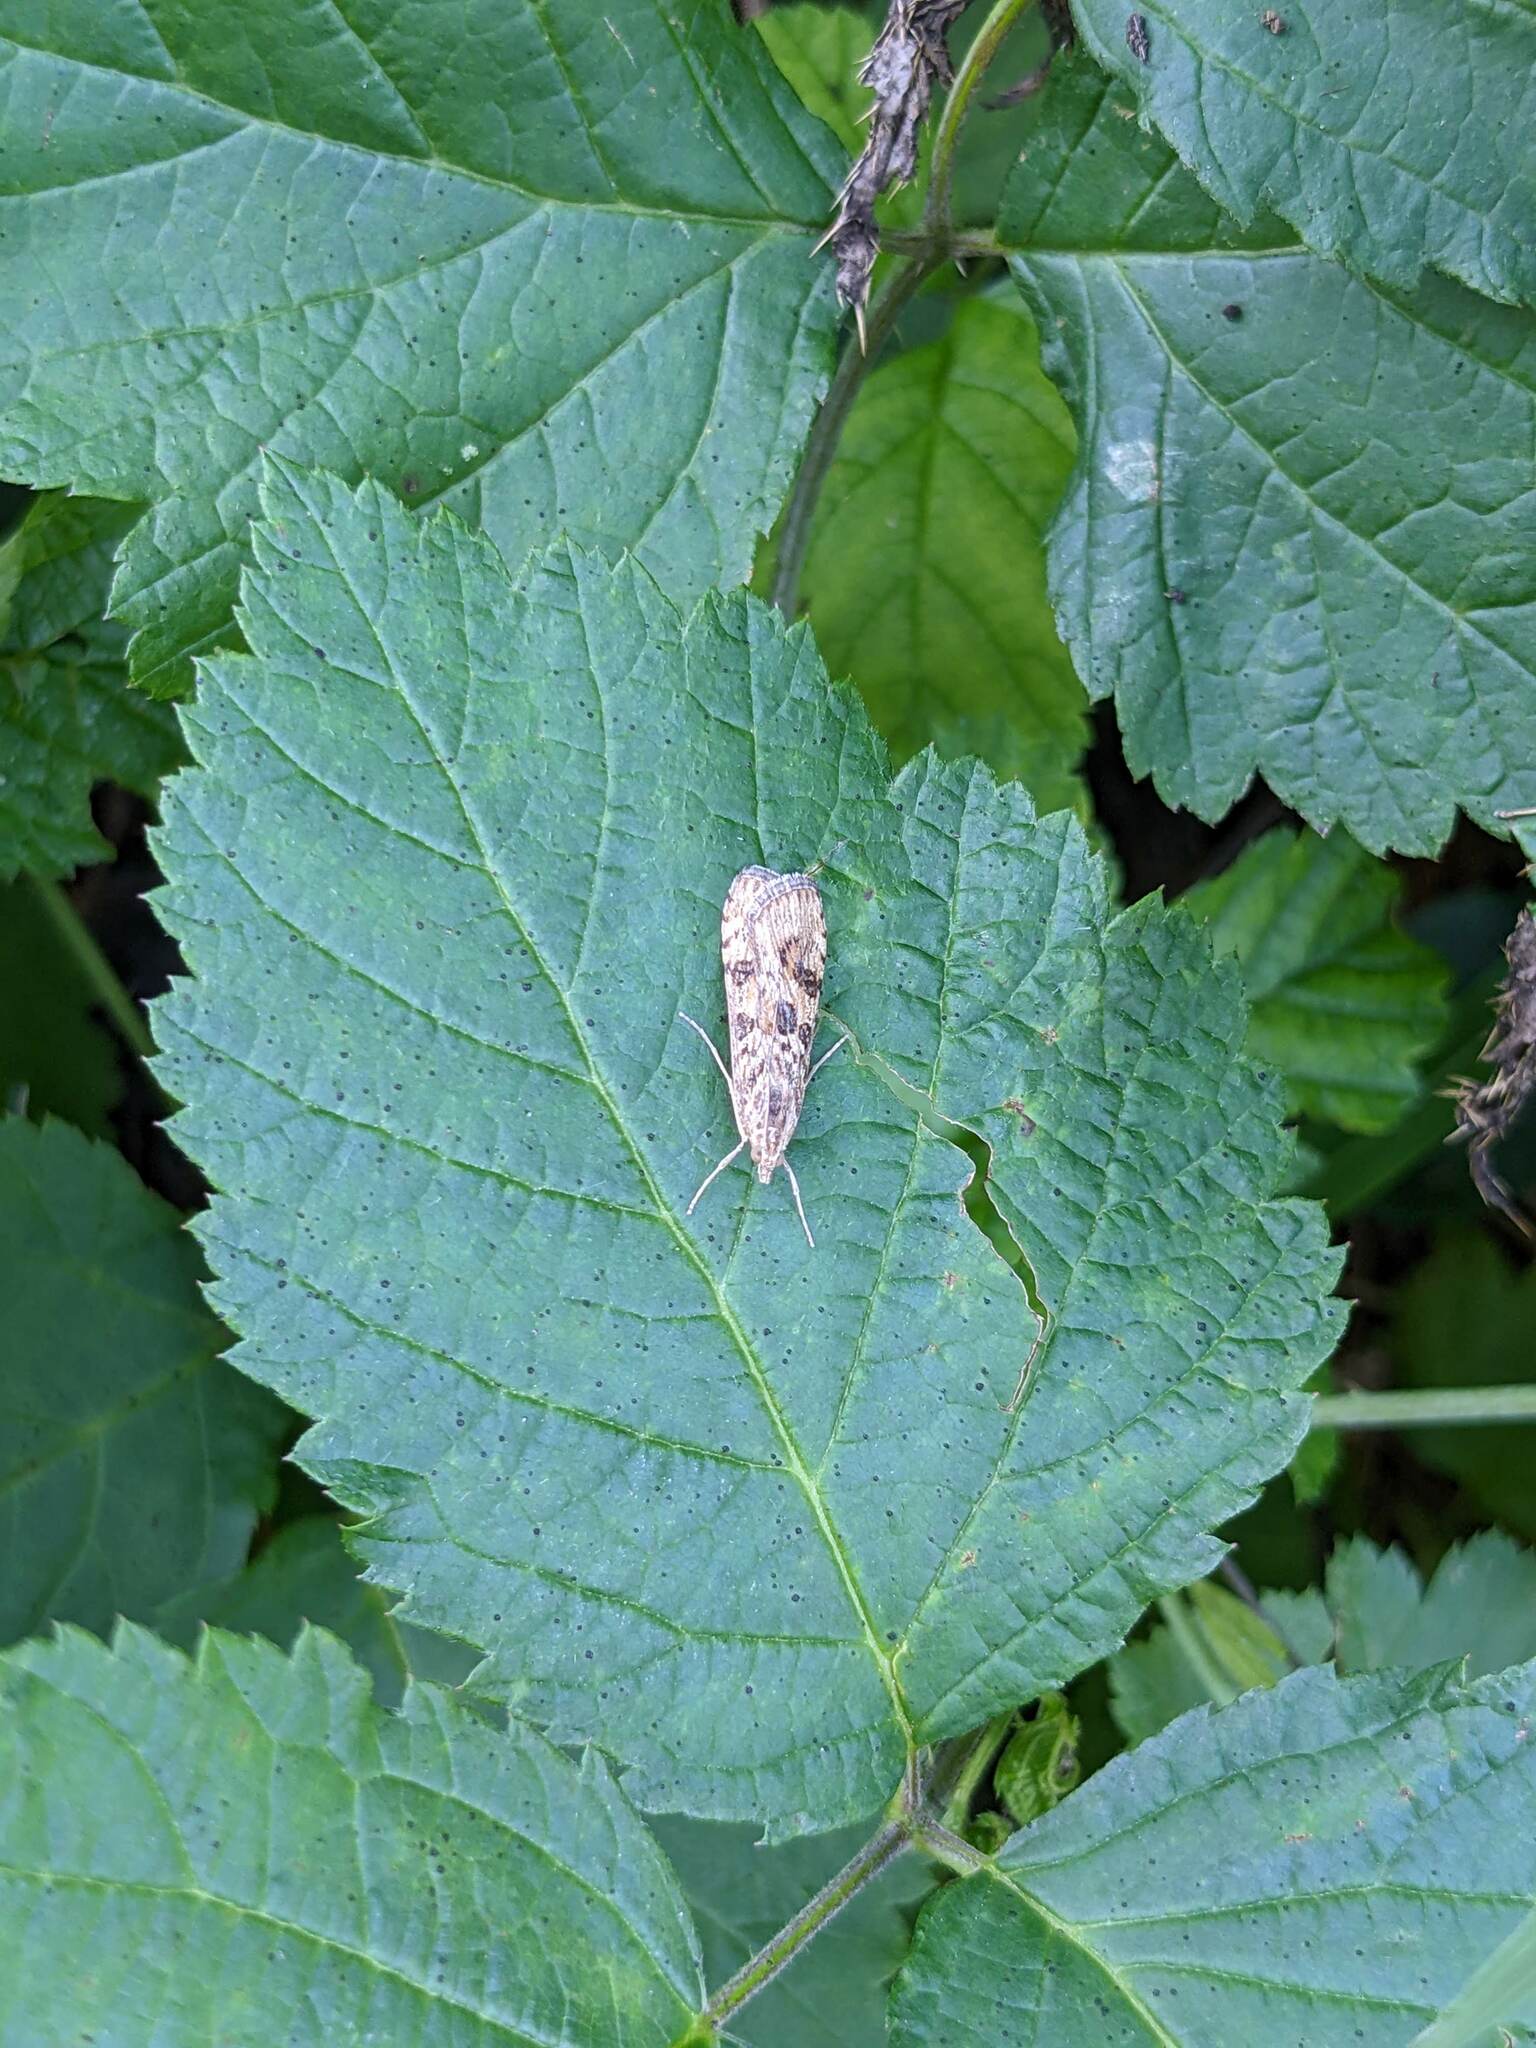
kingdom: Animalia
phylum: Arthropoda
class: Insecta
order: Lepidoptera
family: Crambidae
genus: Nomophila
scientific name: Nomophila noctuella
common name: Rush veneer
